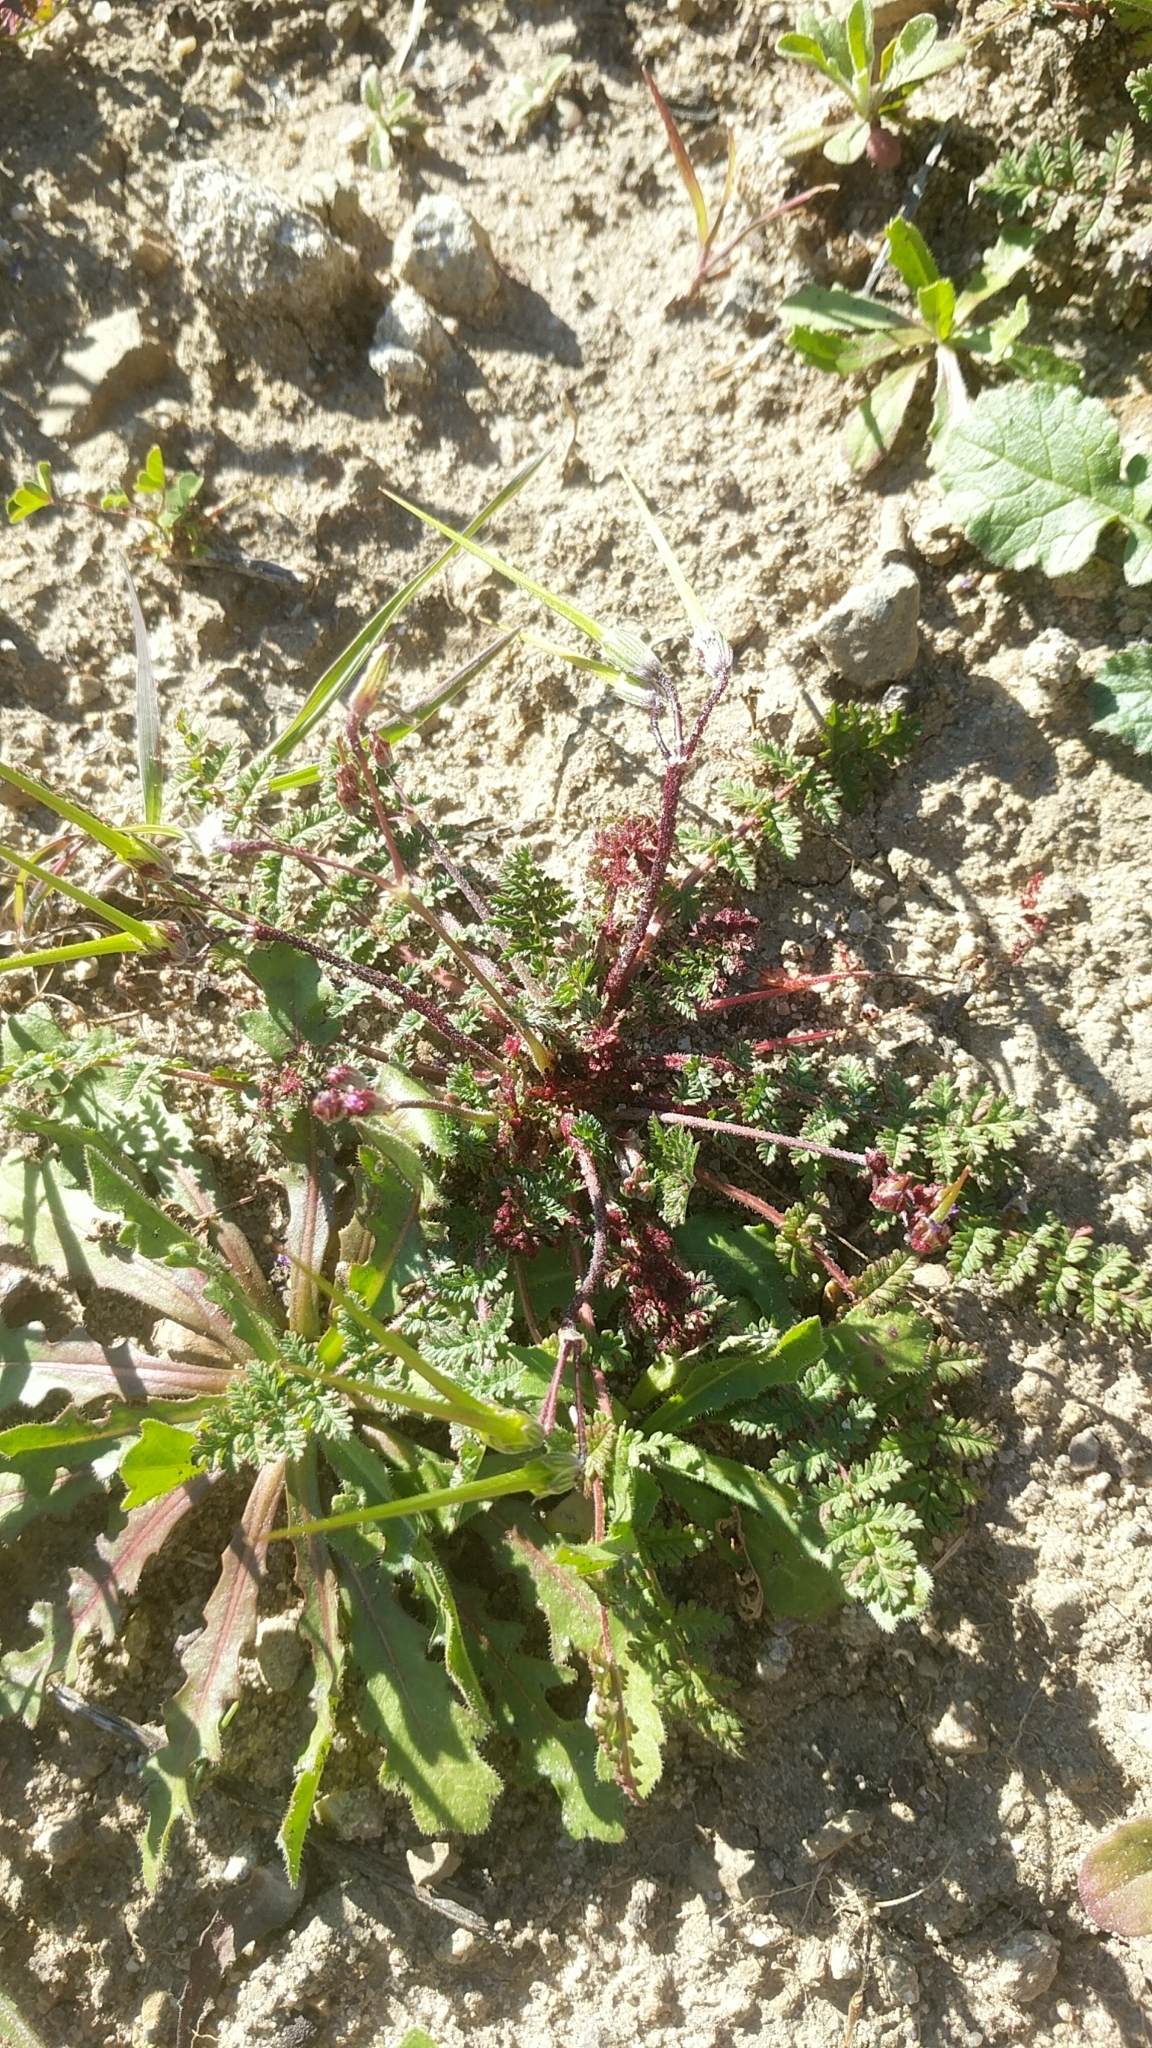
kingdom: Plantae
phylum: Tracheophyta
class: Magnoliopsida
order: Geraniales
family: Geraniaceae
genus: Erodium
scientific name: Erodium cicutarium
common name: Common stork's-bill
